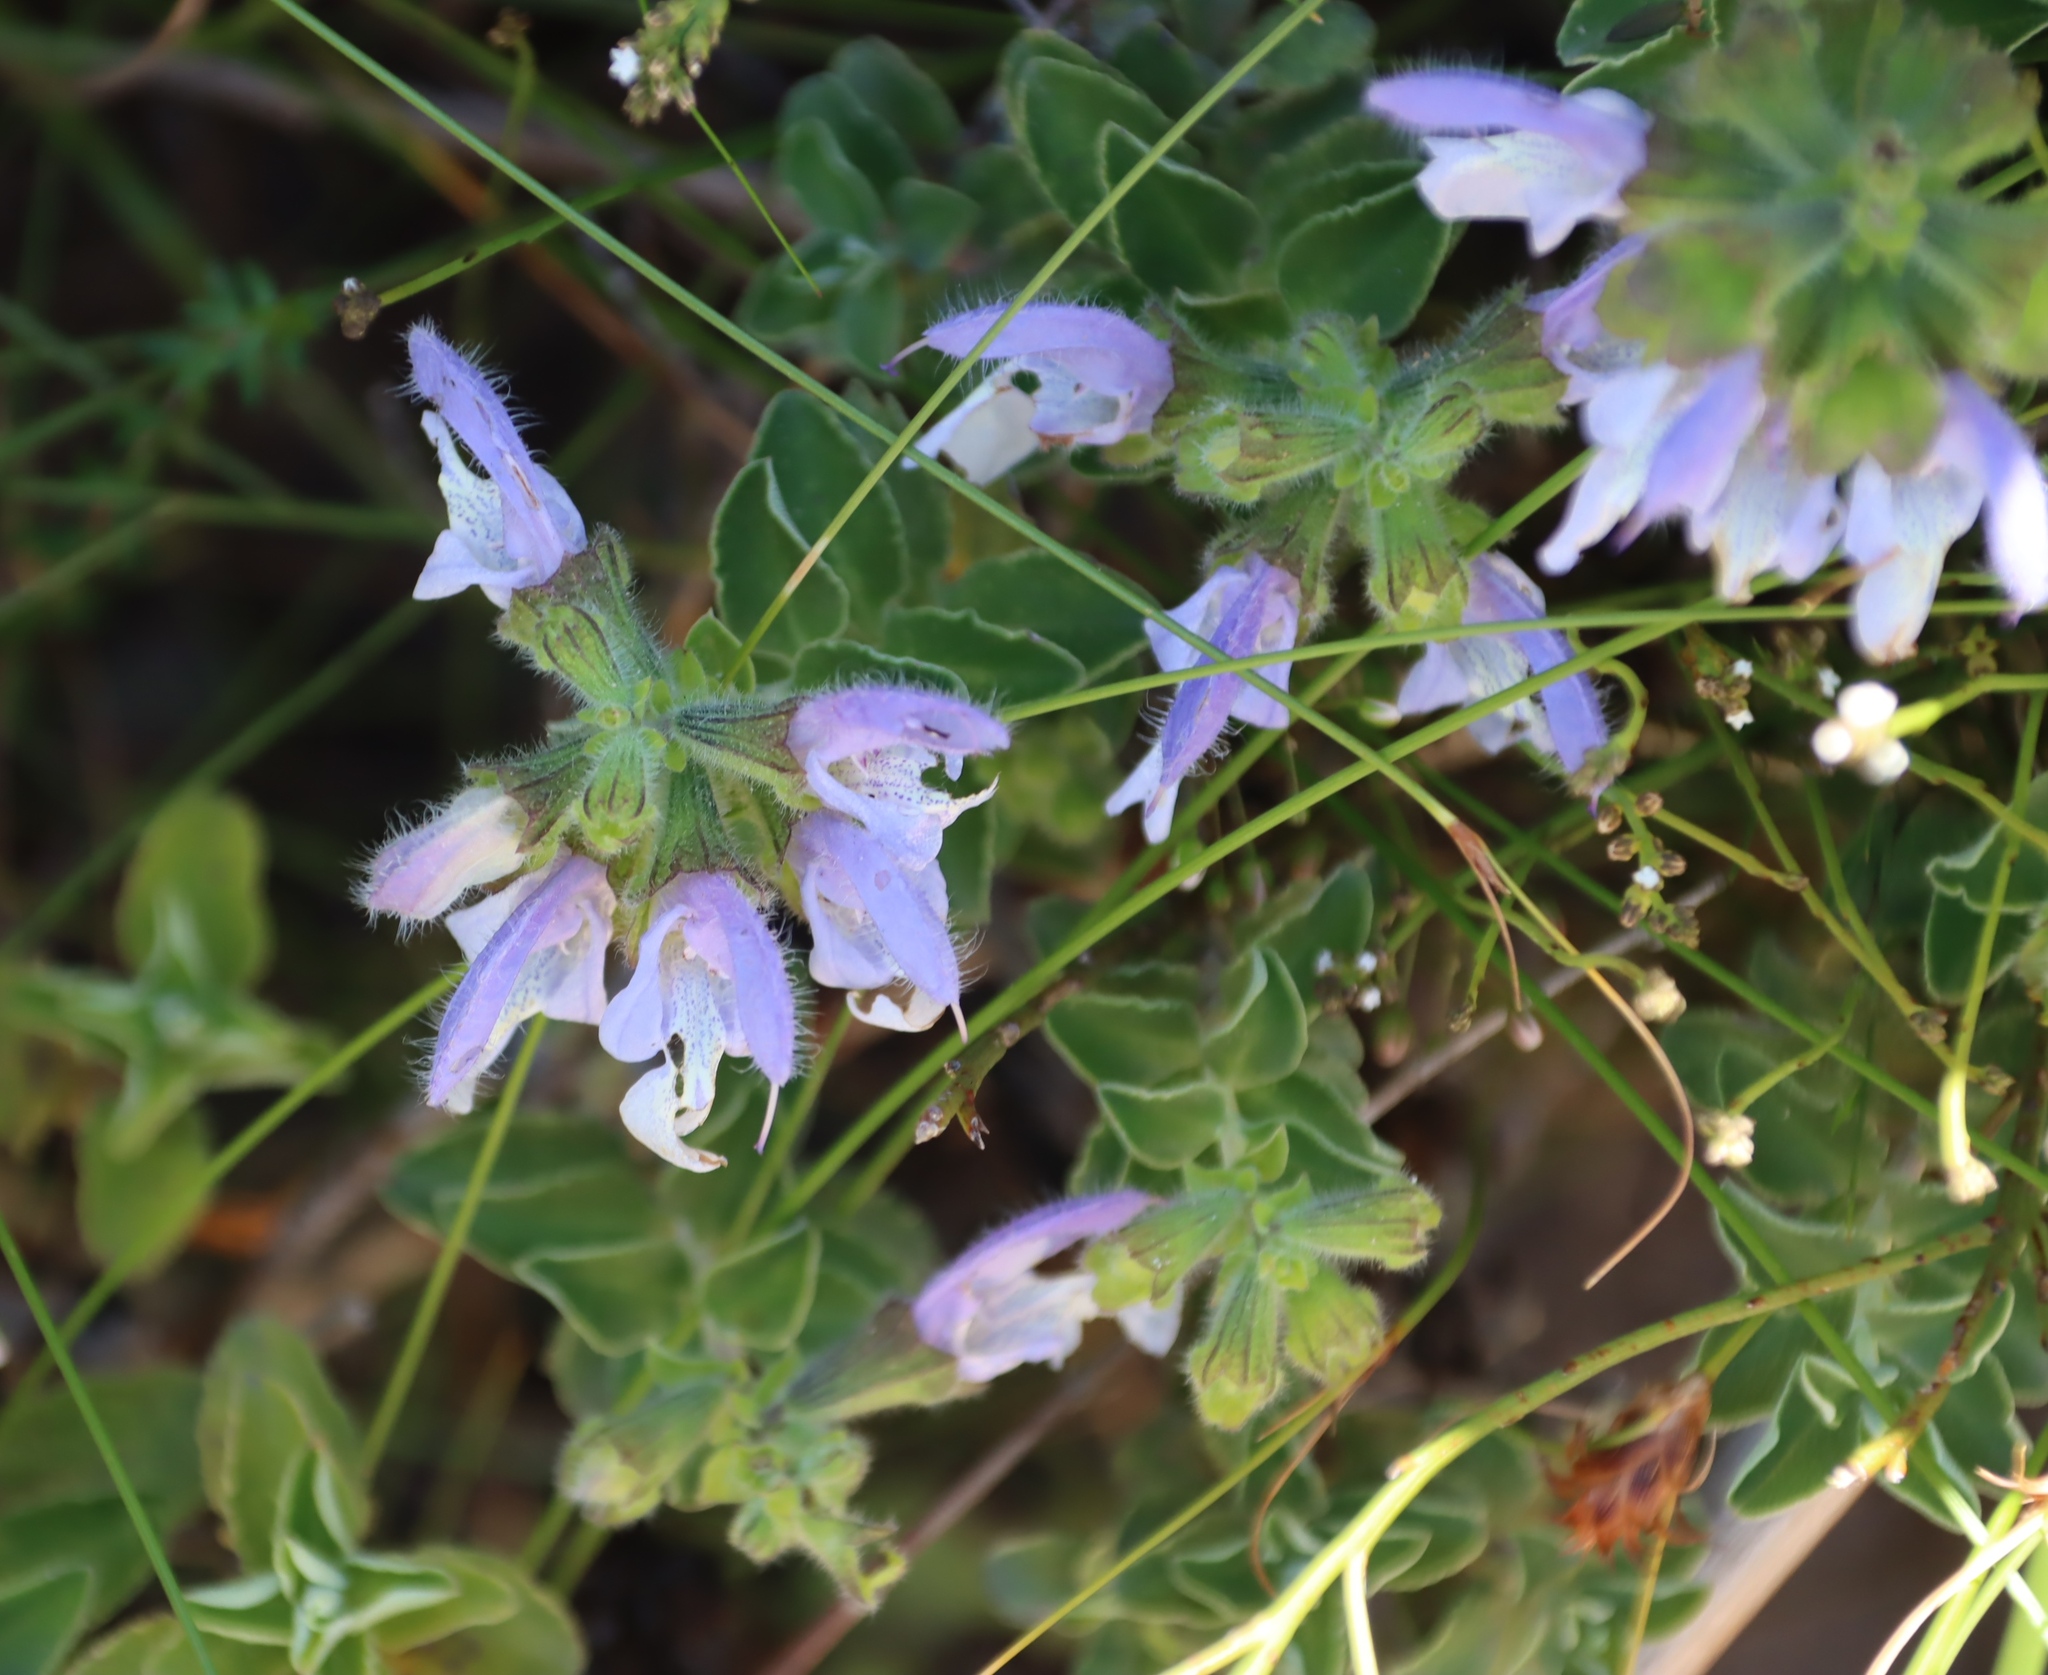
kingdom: Plantae
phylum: Tracheophyta
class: Magnoliopsida
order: Lamiales
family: Lamiaceae
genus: Salvia
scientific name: Salvia africana
